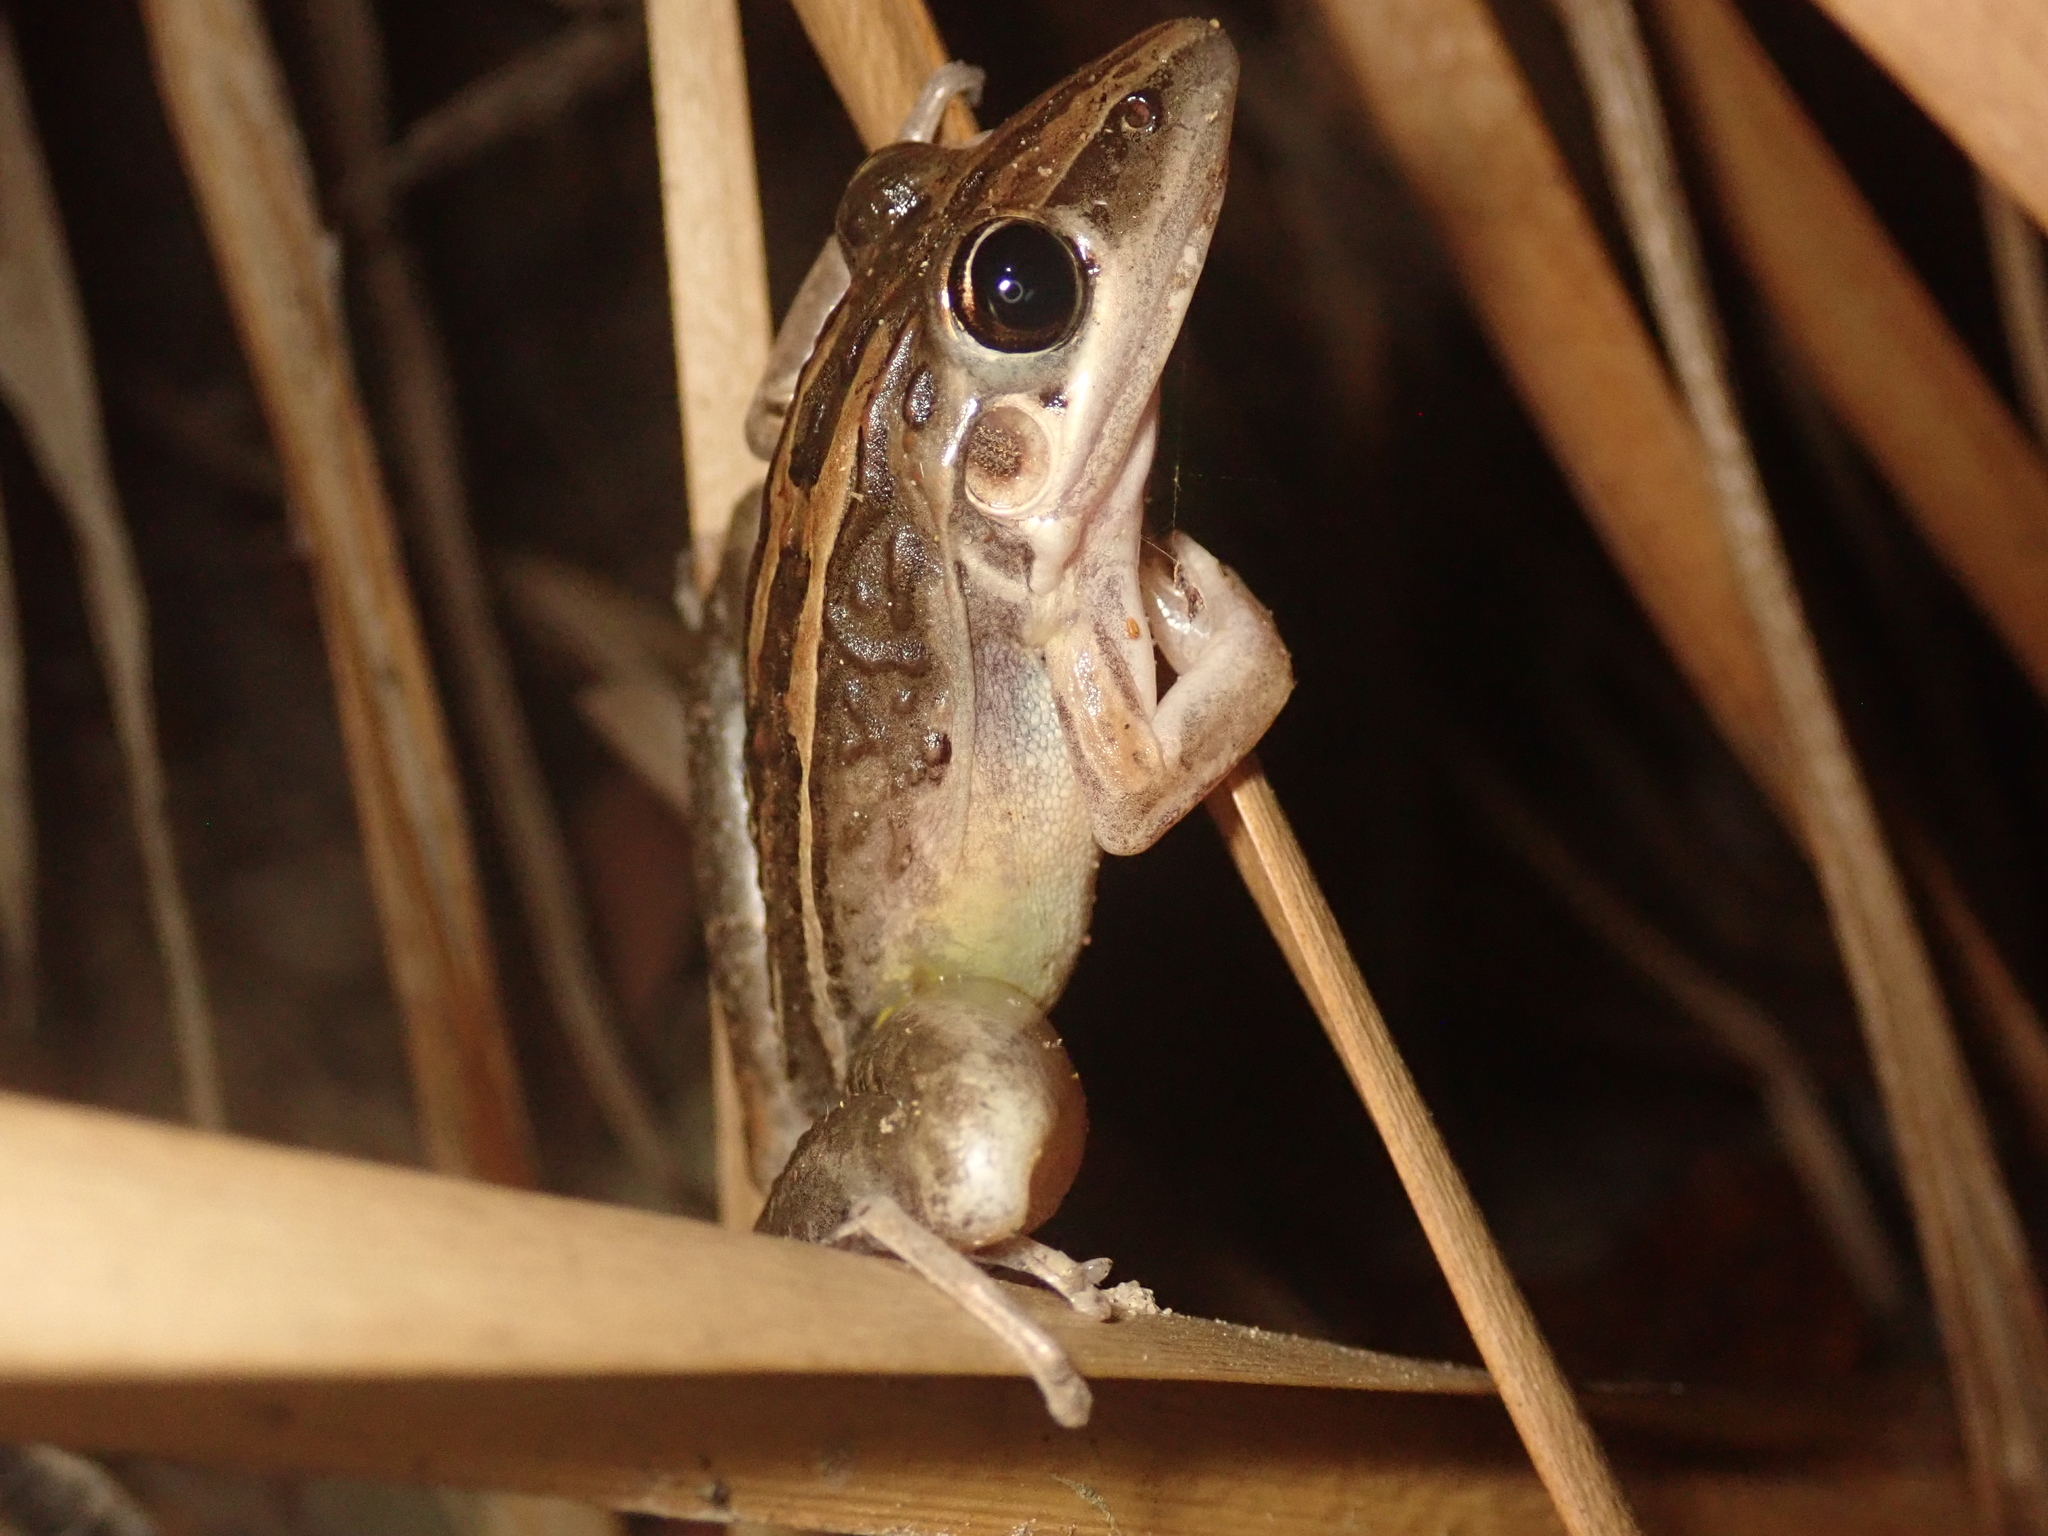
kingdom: Animalia
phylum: Chordata
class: Amphibia
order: Anura
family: Pelodryadidae
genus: Litoria
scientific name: Litoria nasuta
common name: Rocket frog
